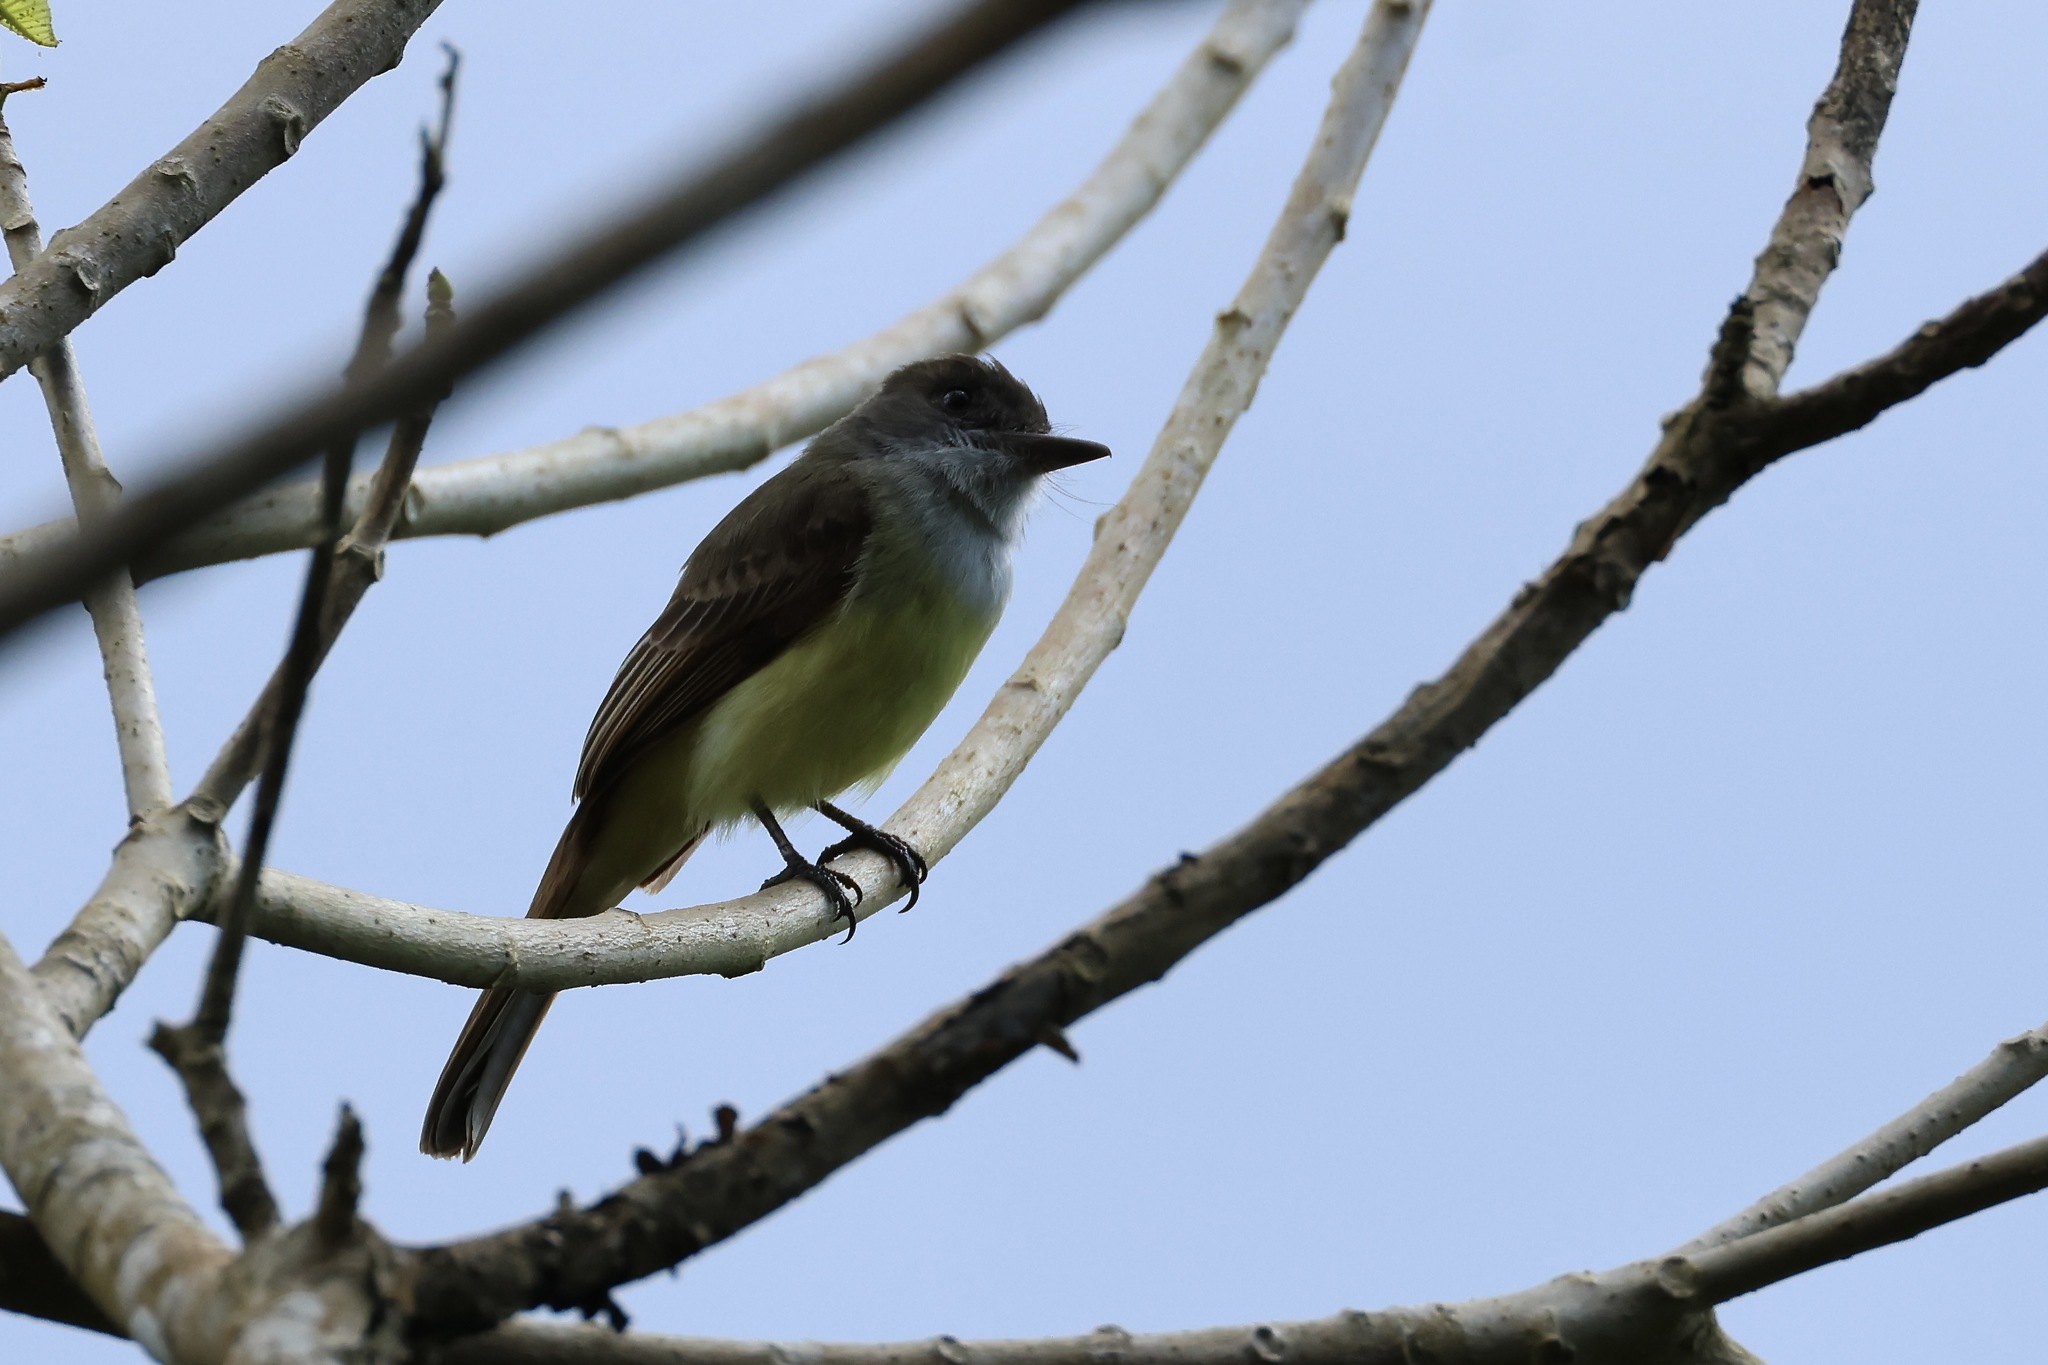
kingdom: Animalia
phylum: Chordata
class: Aves
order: Passeriformes
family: Tyrannidae
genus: Myiarchus
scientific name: Myiarchus tuberculifer
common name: Dusky-capped flycatcher
